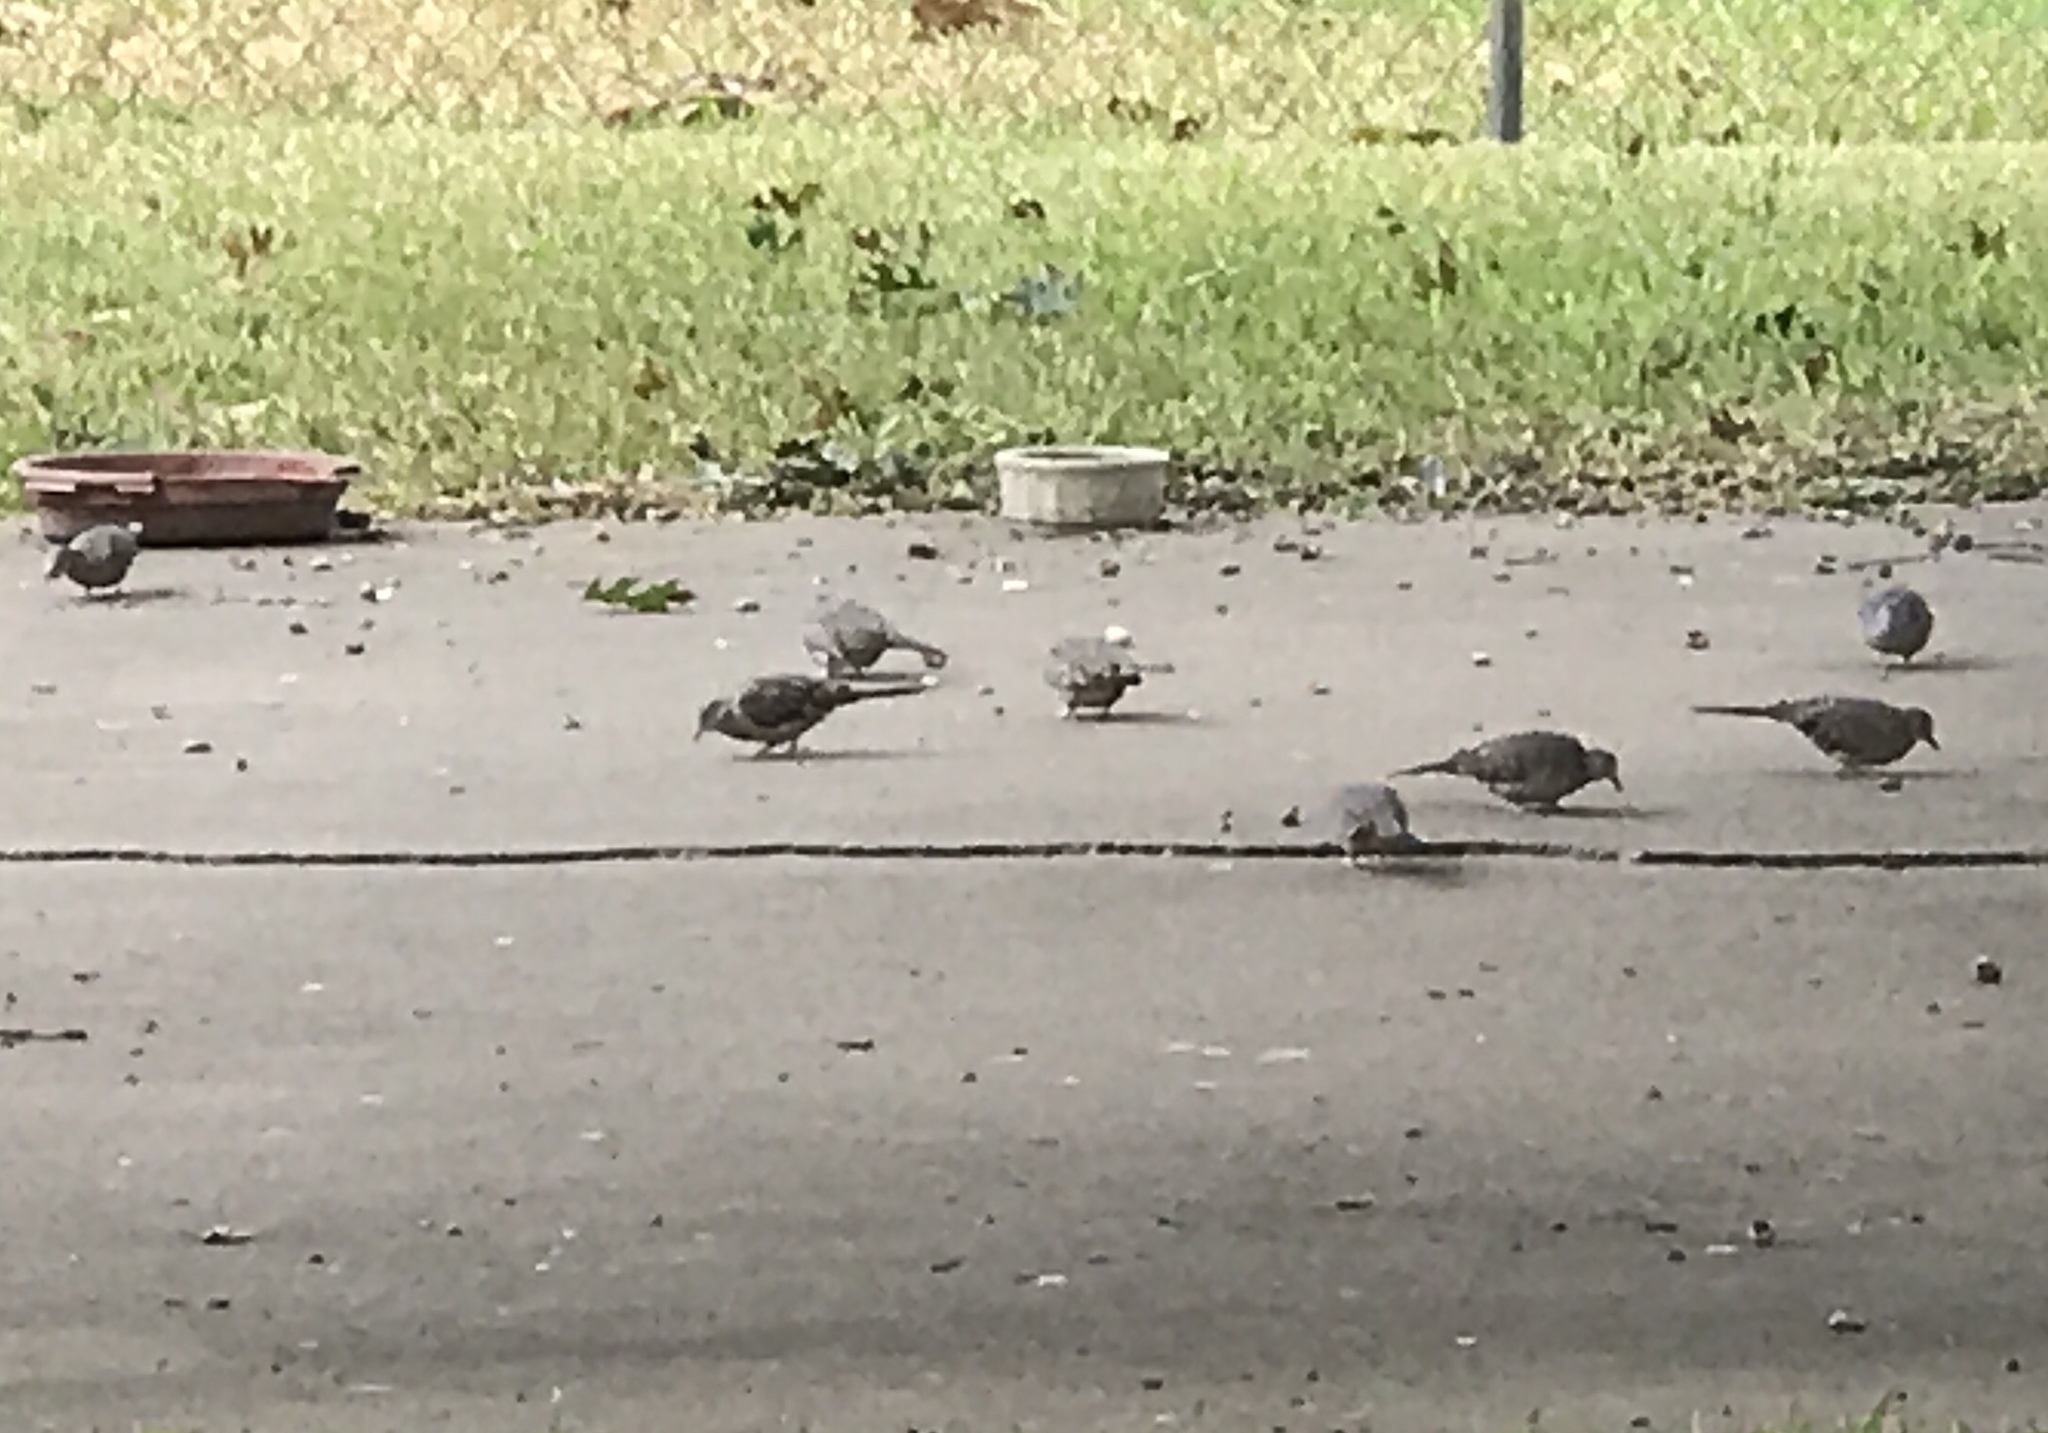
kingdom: Animalia
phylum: Chordata
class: Aves
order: Columbiformes
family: Columbidae
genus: Columbina
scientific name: Columbina inca
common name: Inca dove
